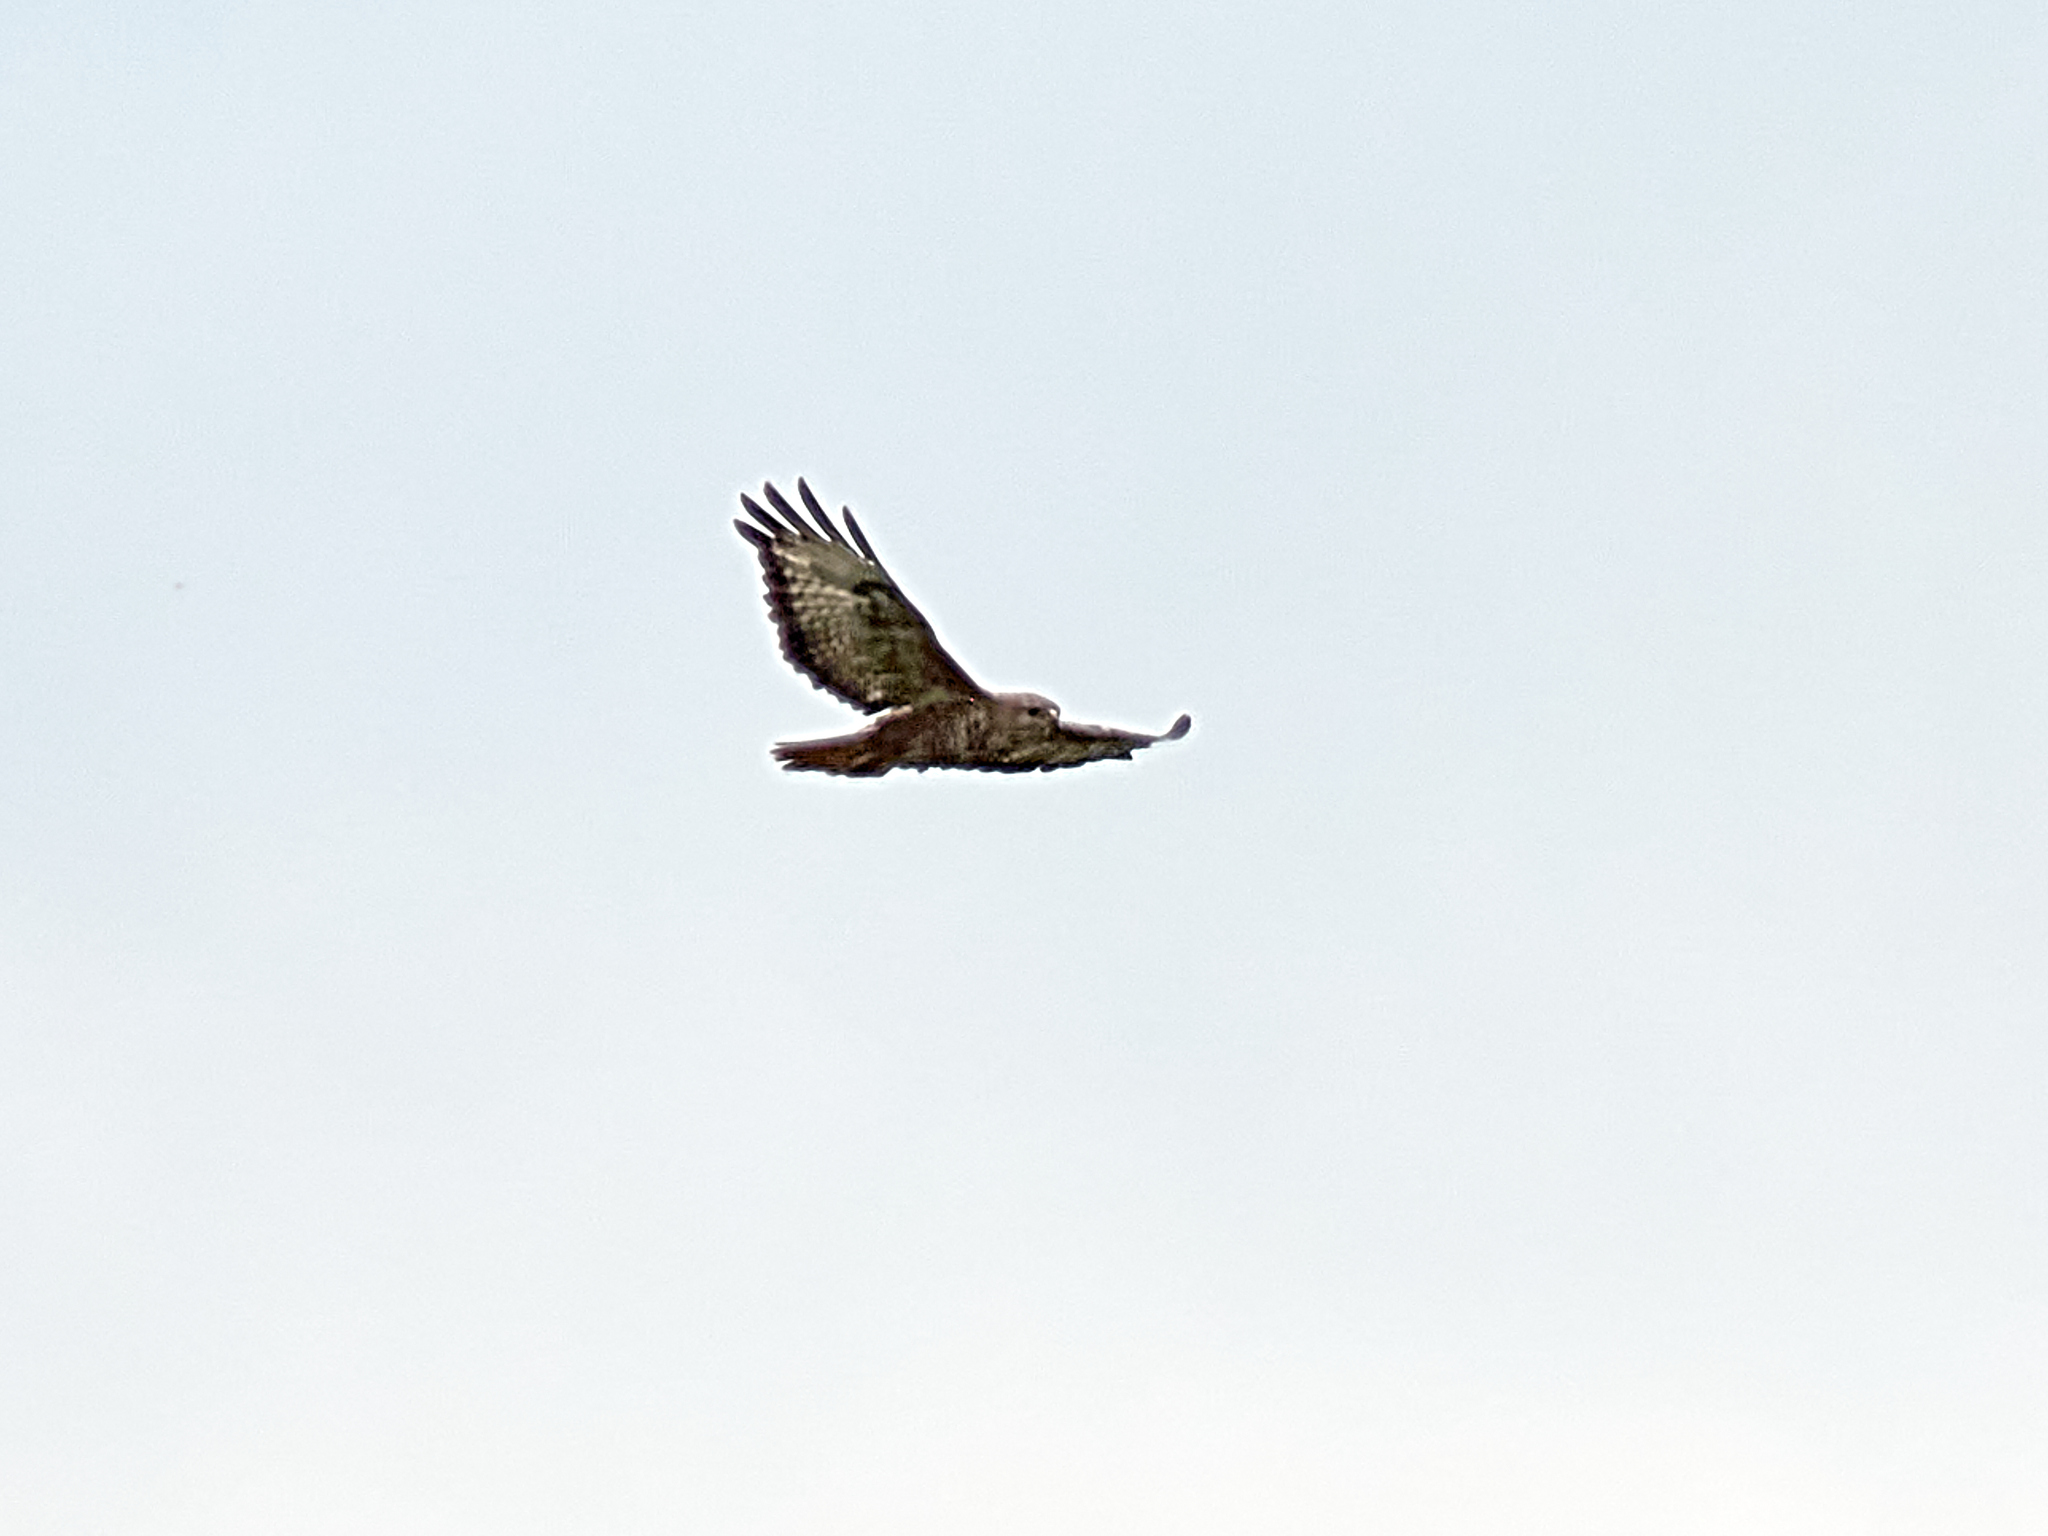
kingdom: Animalia
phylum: Chordata
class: Aves
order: Accipitriformes
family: Accipitridae
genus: Buteo
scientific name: Buteo buteo
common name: Common buzzard
